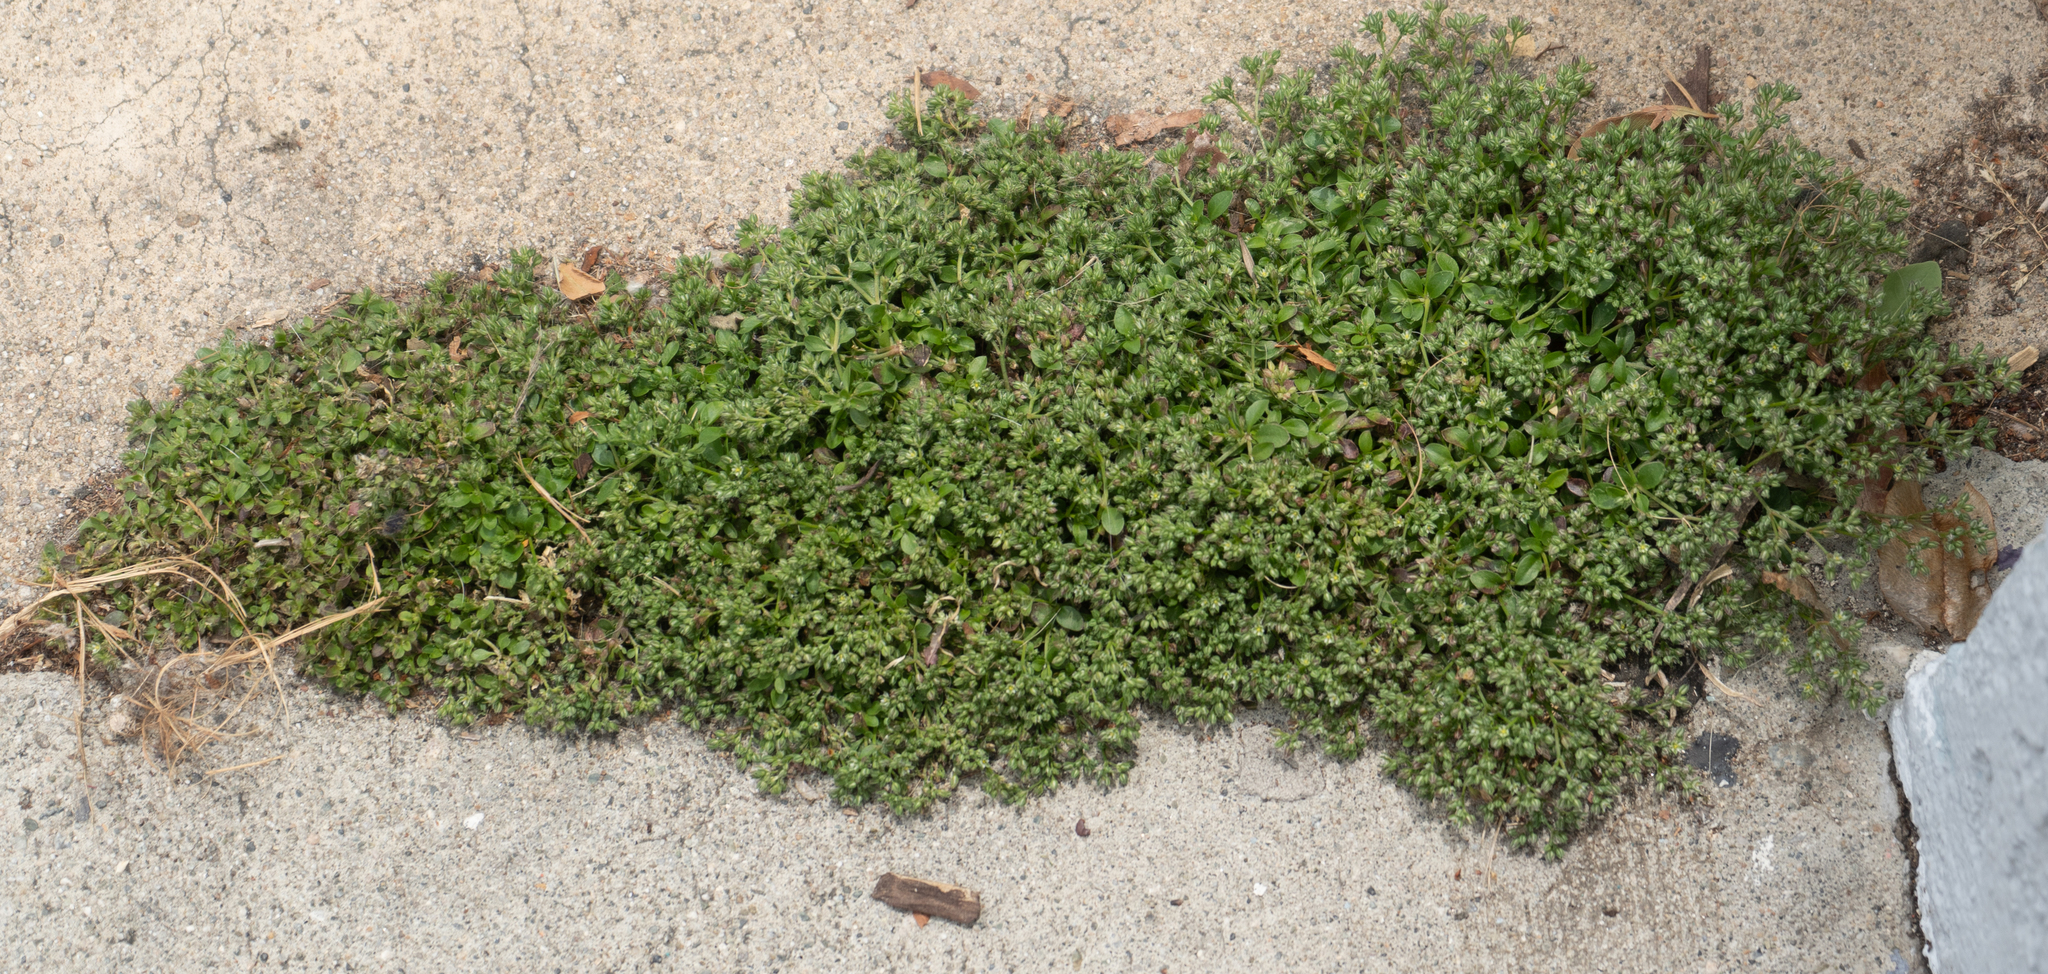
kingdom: Plantae
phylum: Tracheophyta
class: Magnoliopsida
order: Caryophyllales
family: Caryophyllaceae
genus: Polycarpon
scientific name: Polycarpon tetraphyllum
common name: Four-leaved all-seed
